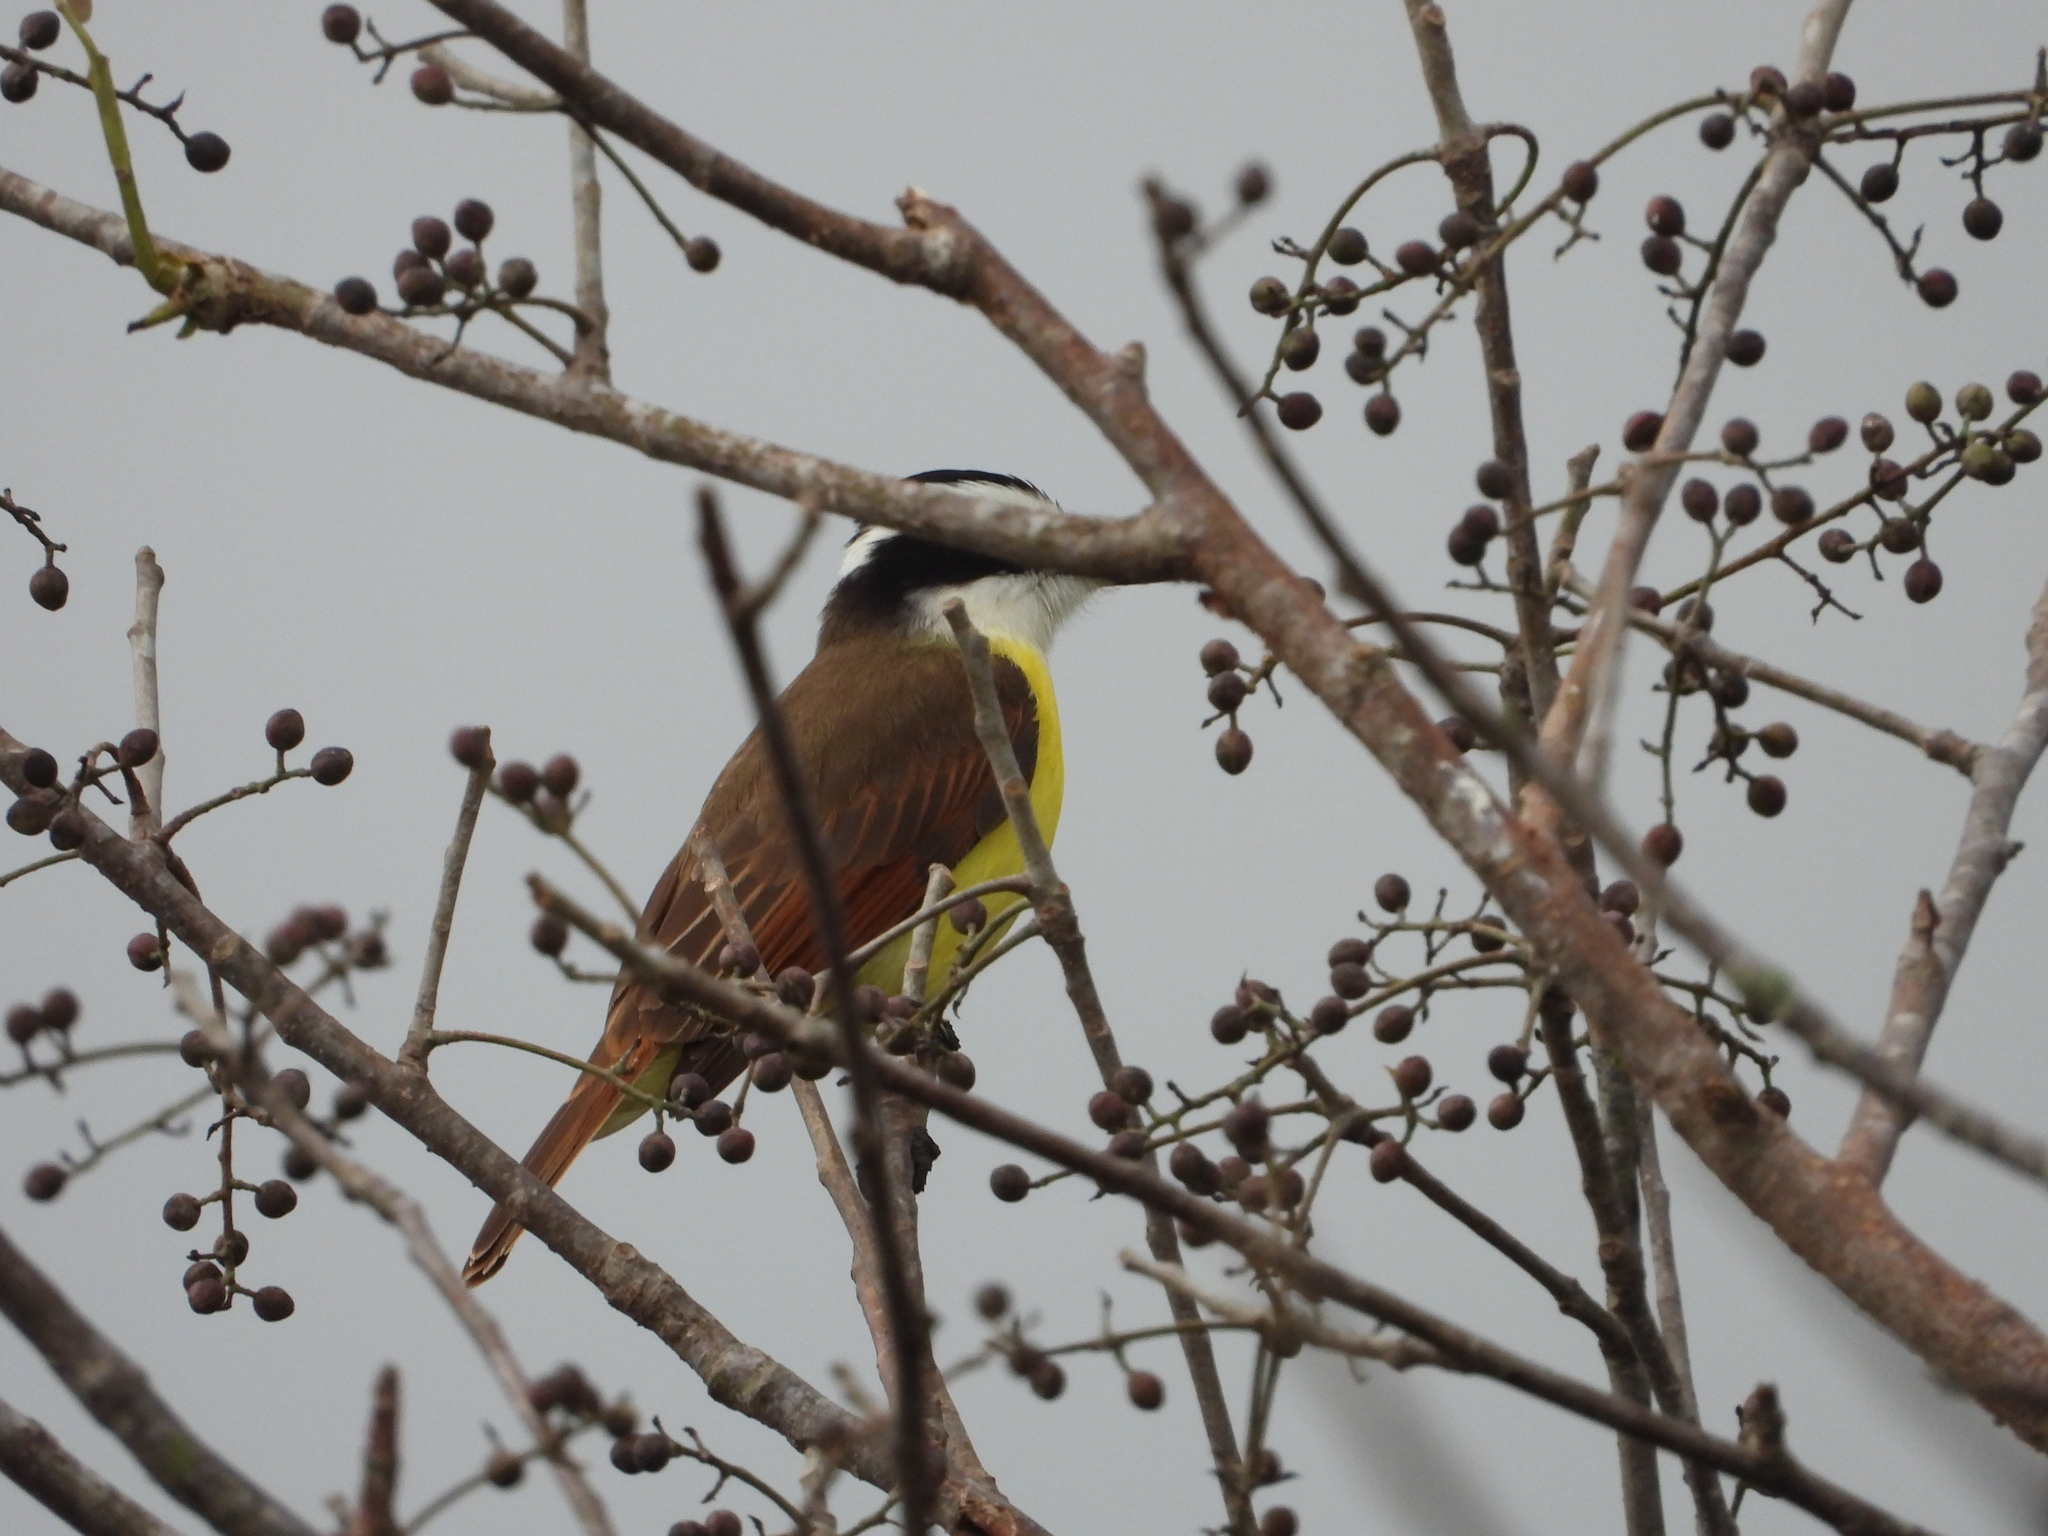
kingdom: Animalia
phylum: Chordata
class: Aves
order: Passeriformes
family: Tyrannidae
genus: Pitangus
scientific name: Pitangus sulphuratus
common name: Great kiskadee
